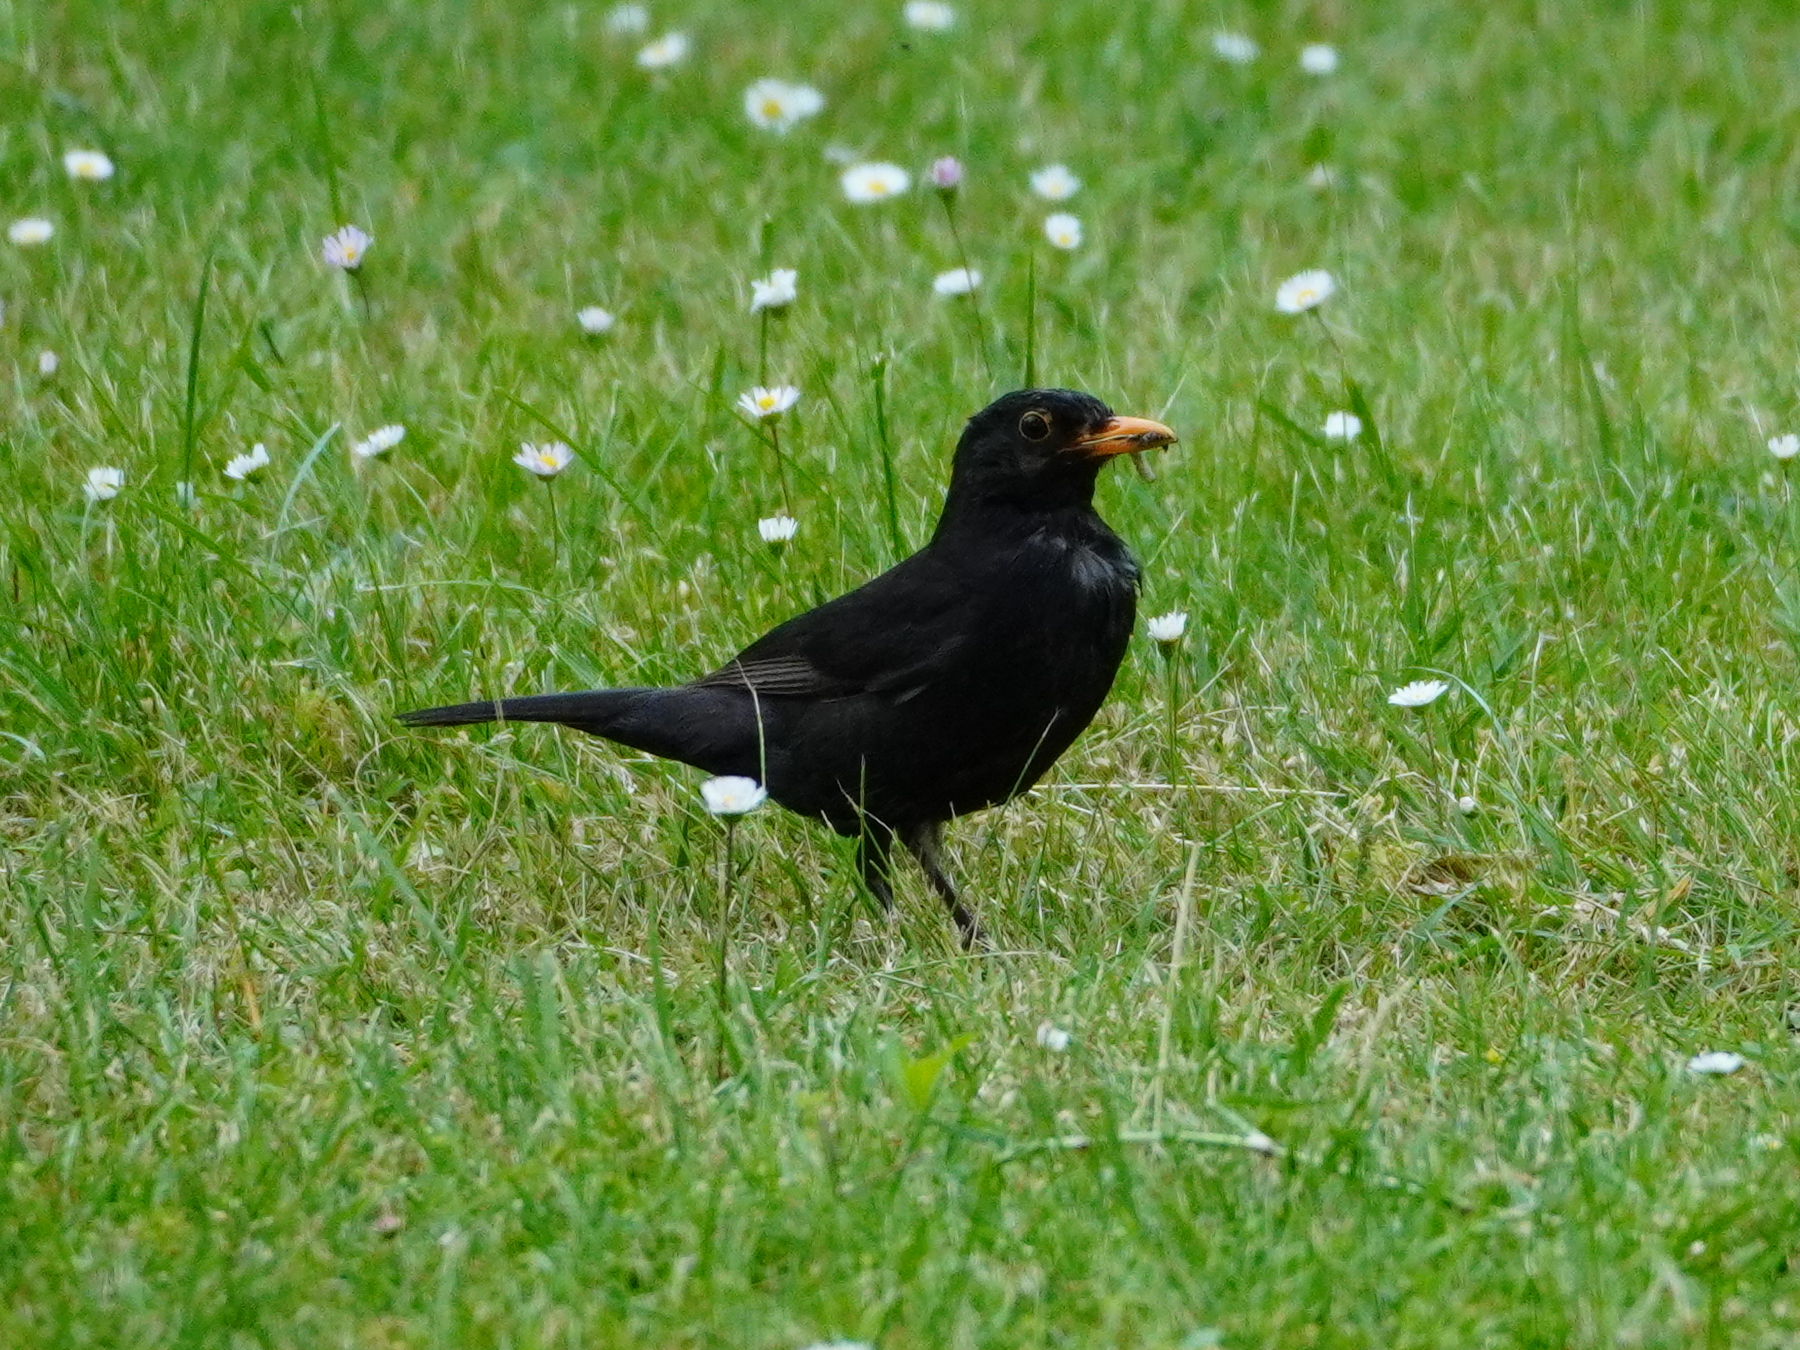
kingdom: Animalia
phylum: Chordata
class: Aves
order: Passeriformes
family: Turdidae
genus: Turdus
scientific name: Turdus merula
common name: Common blackbird
